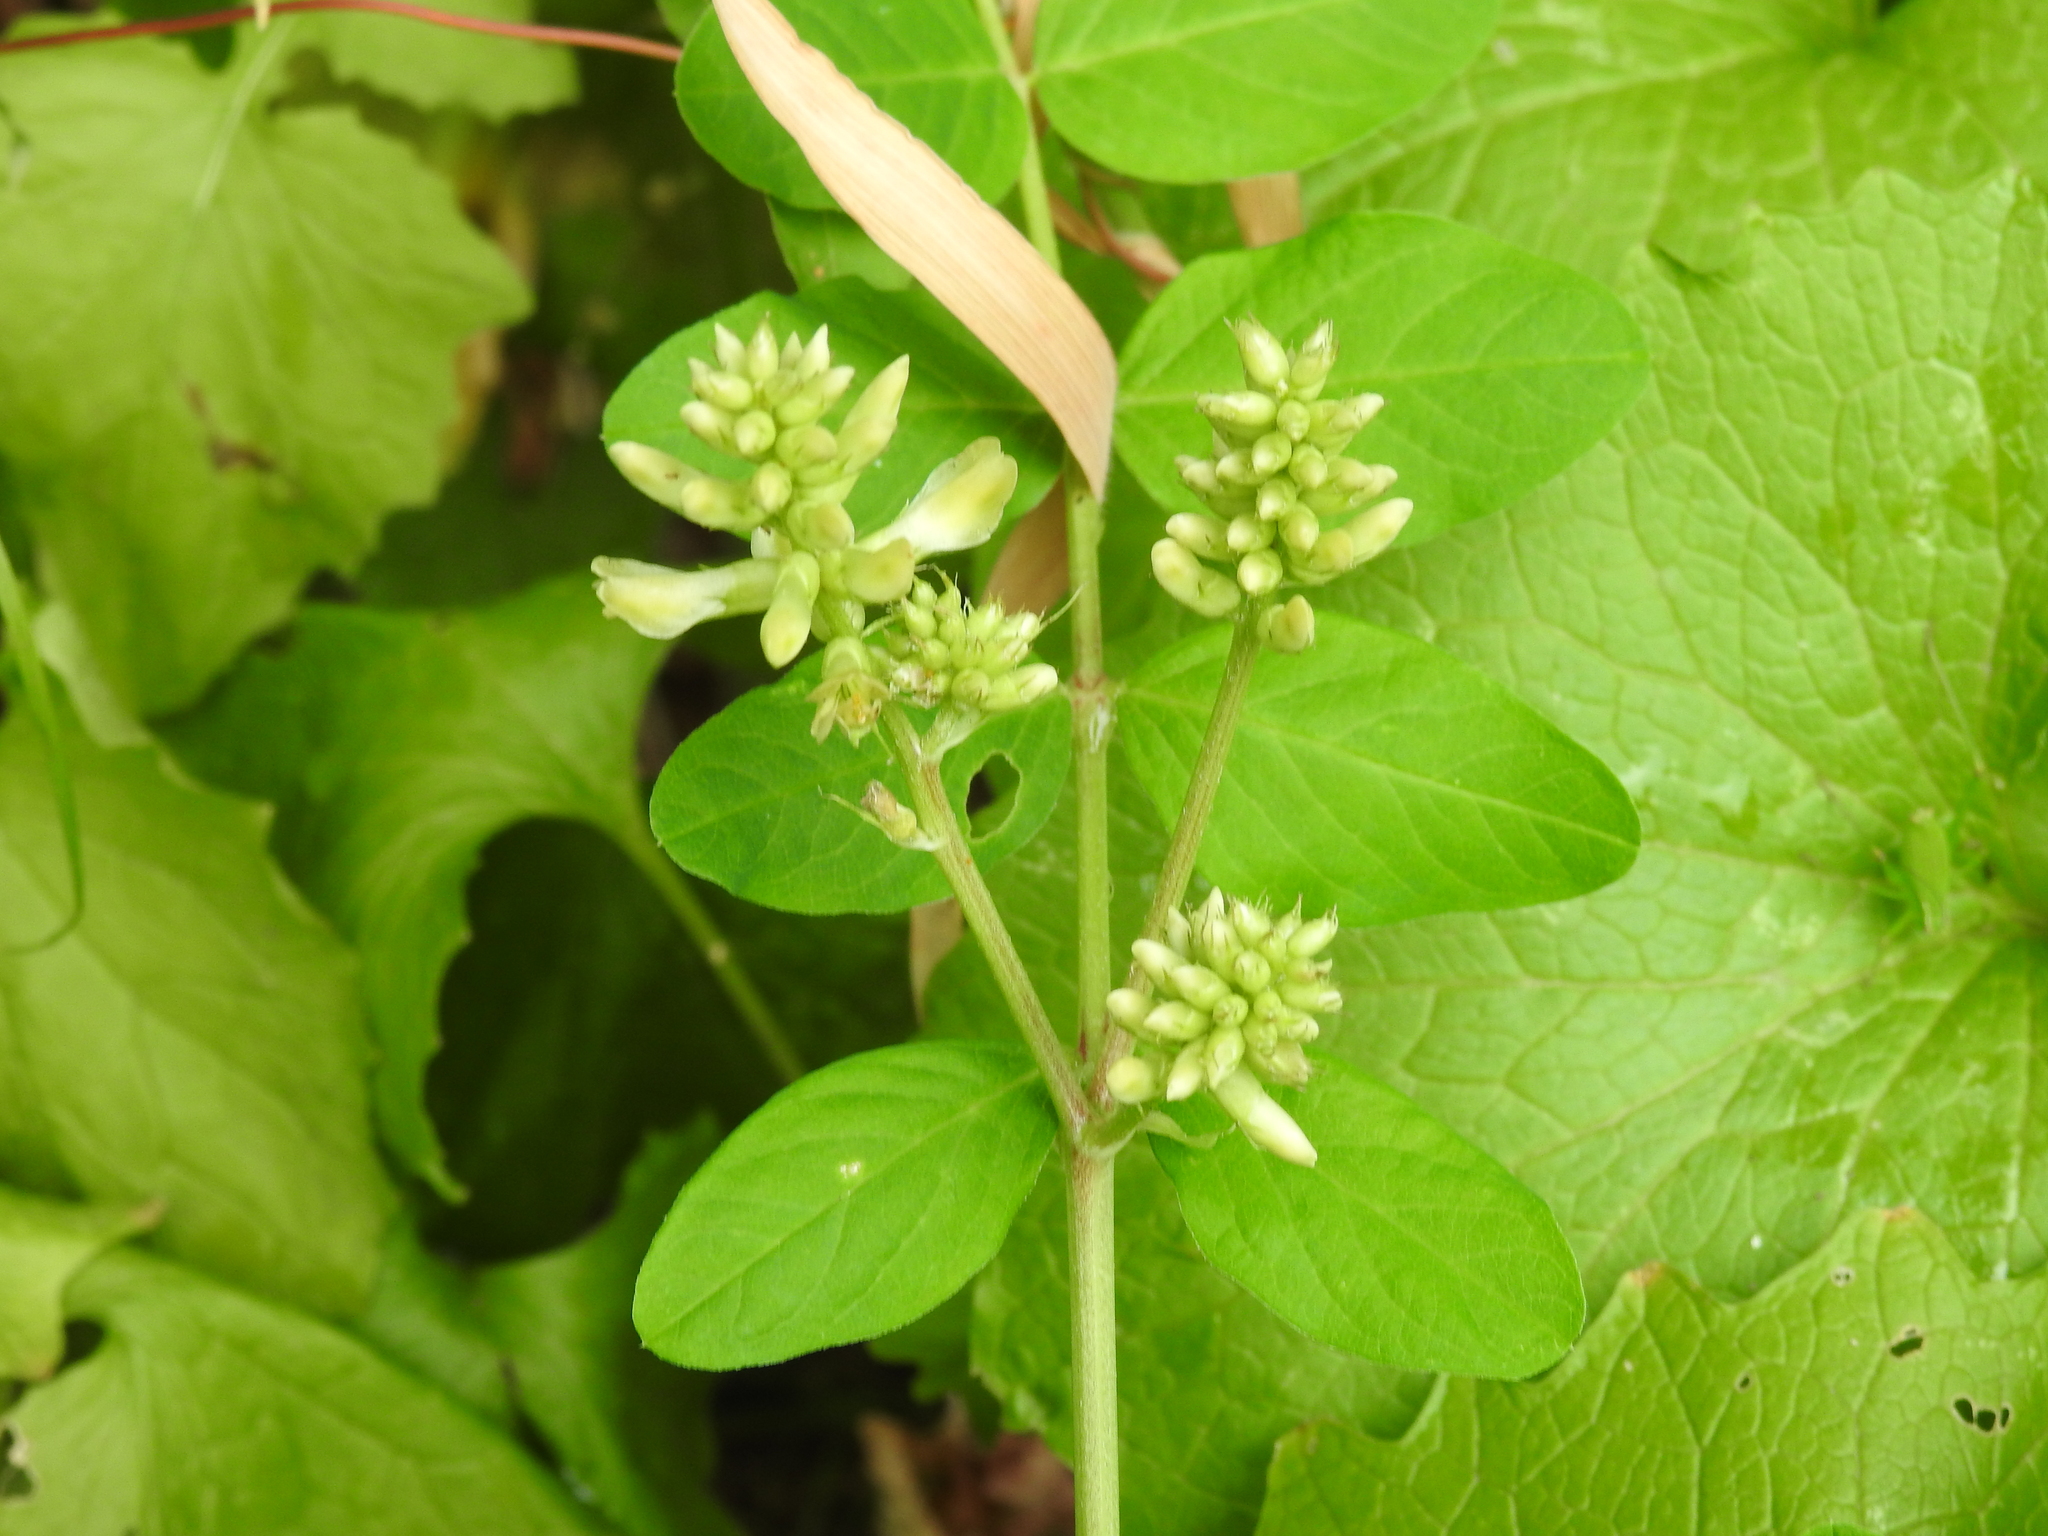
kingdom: Plantae
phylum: Tracheophyta
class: Magnoliopsida
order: Fabales
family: Fabaceae
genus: Astragalus
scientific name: Astragalus glycyphyllos
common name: Wild liquorice
